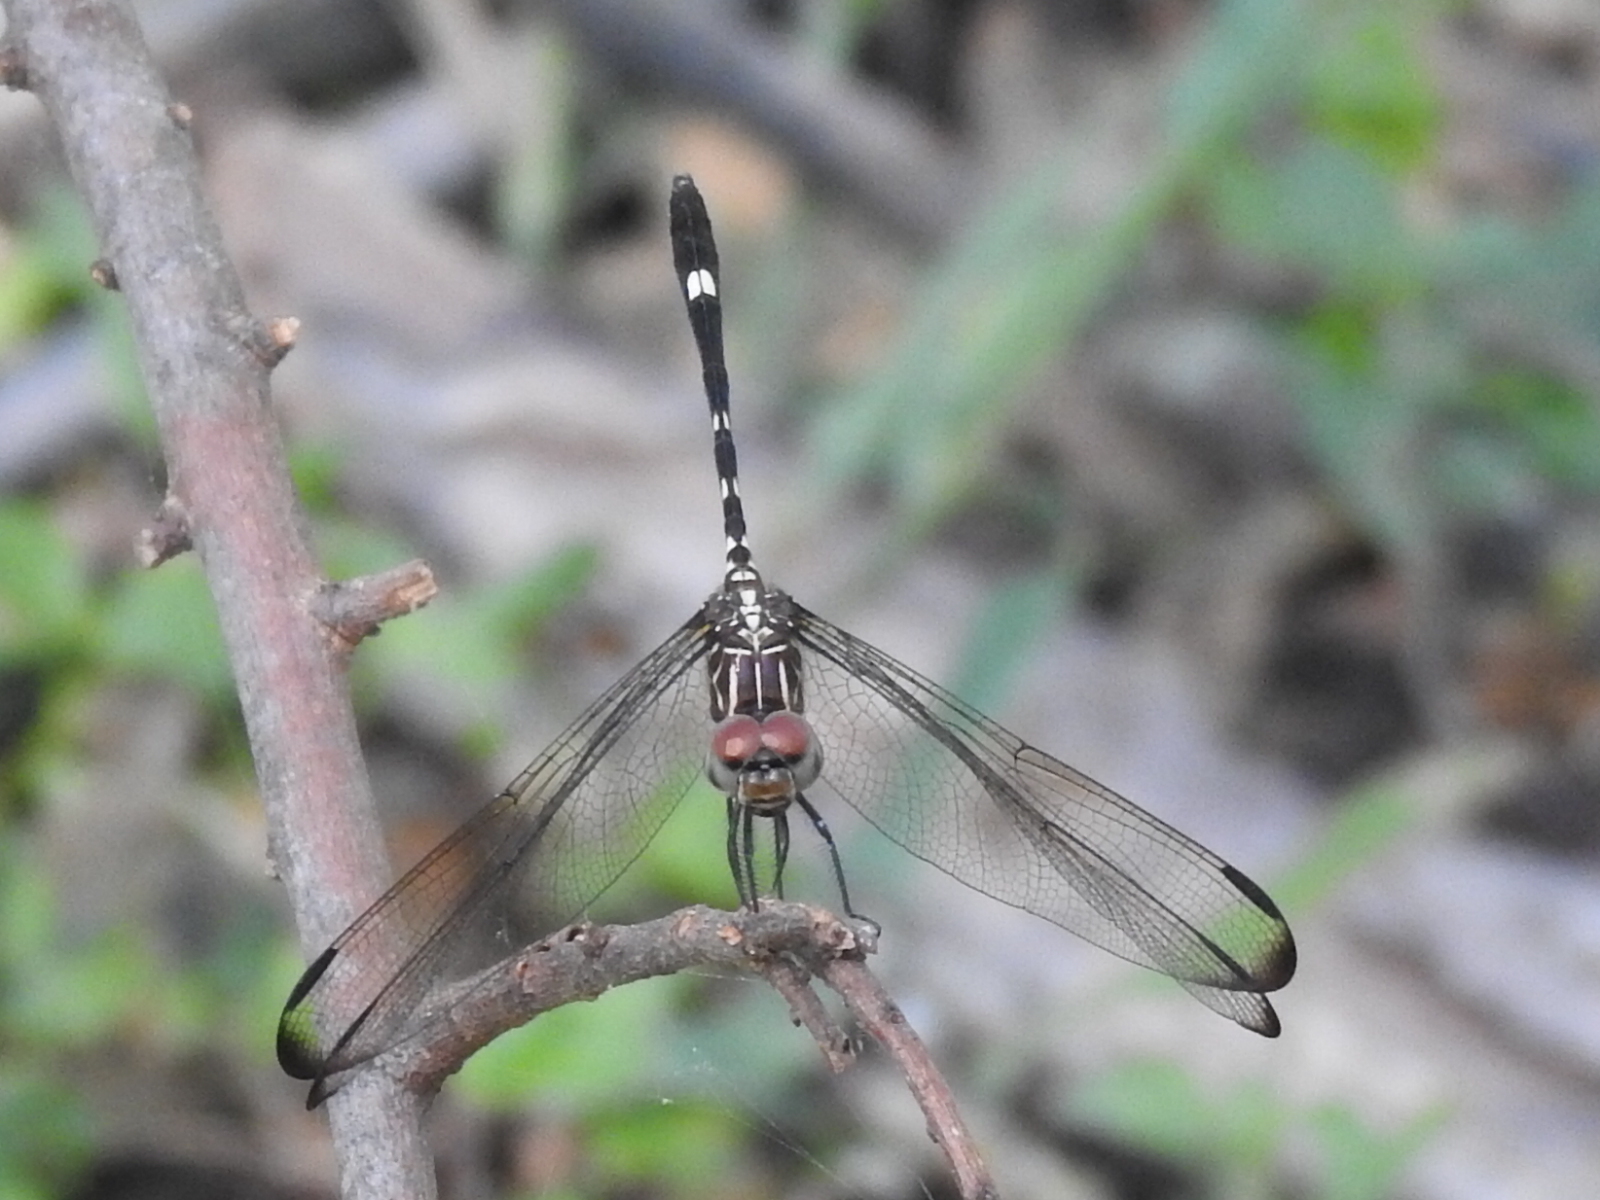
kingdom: Animalia
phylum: Arthropoda
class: Insecta
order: Odonata
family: Libellulidae
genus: Dythemis
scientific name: Dythemis velox
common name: Swift setwing
